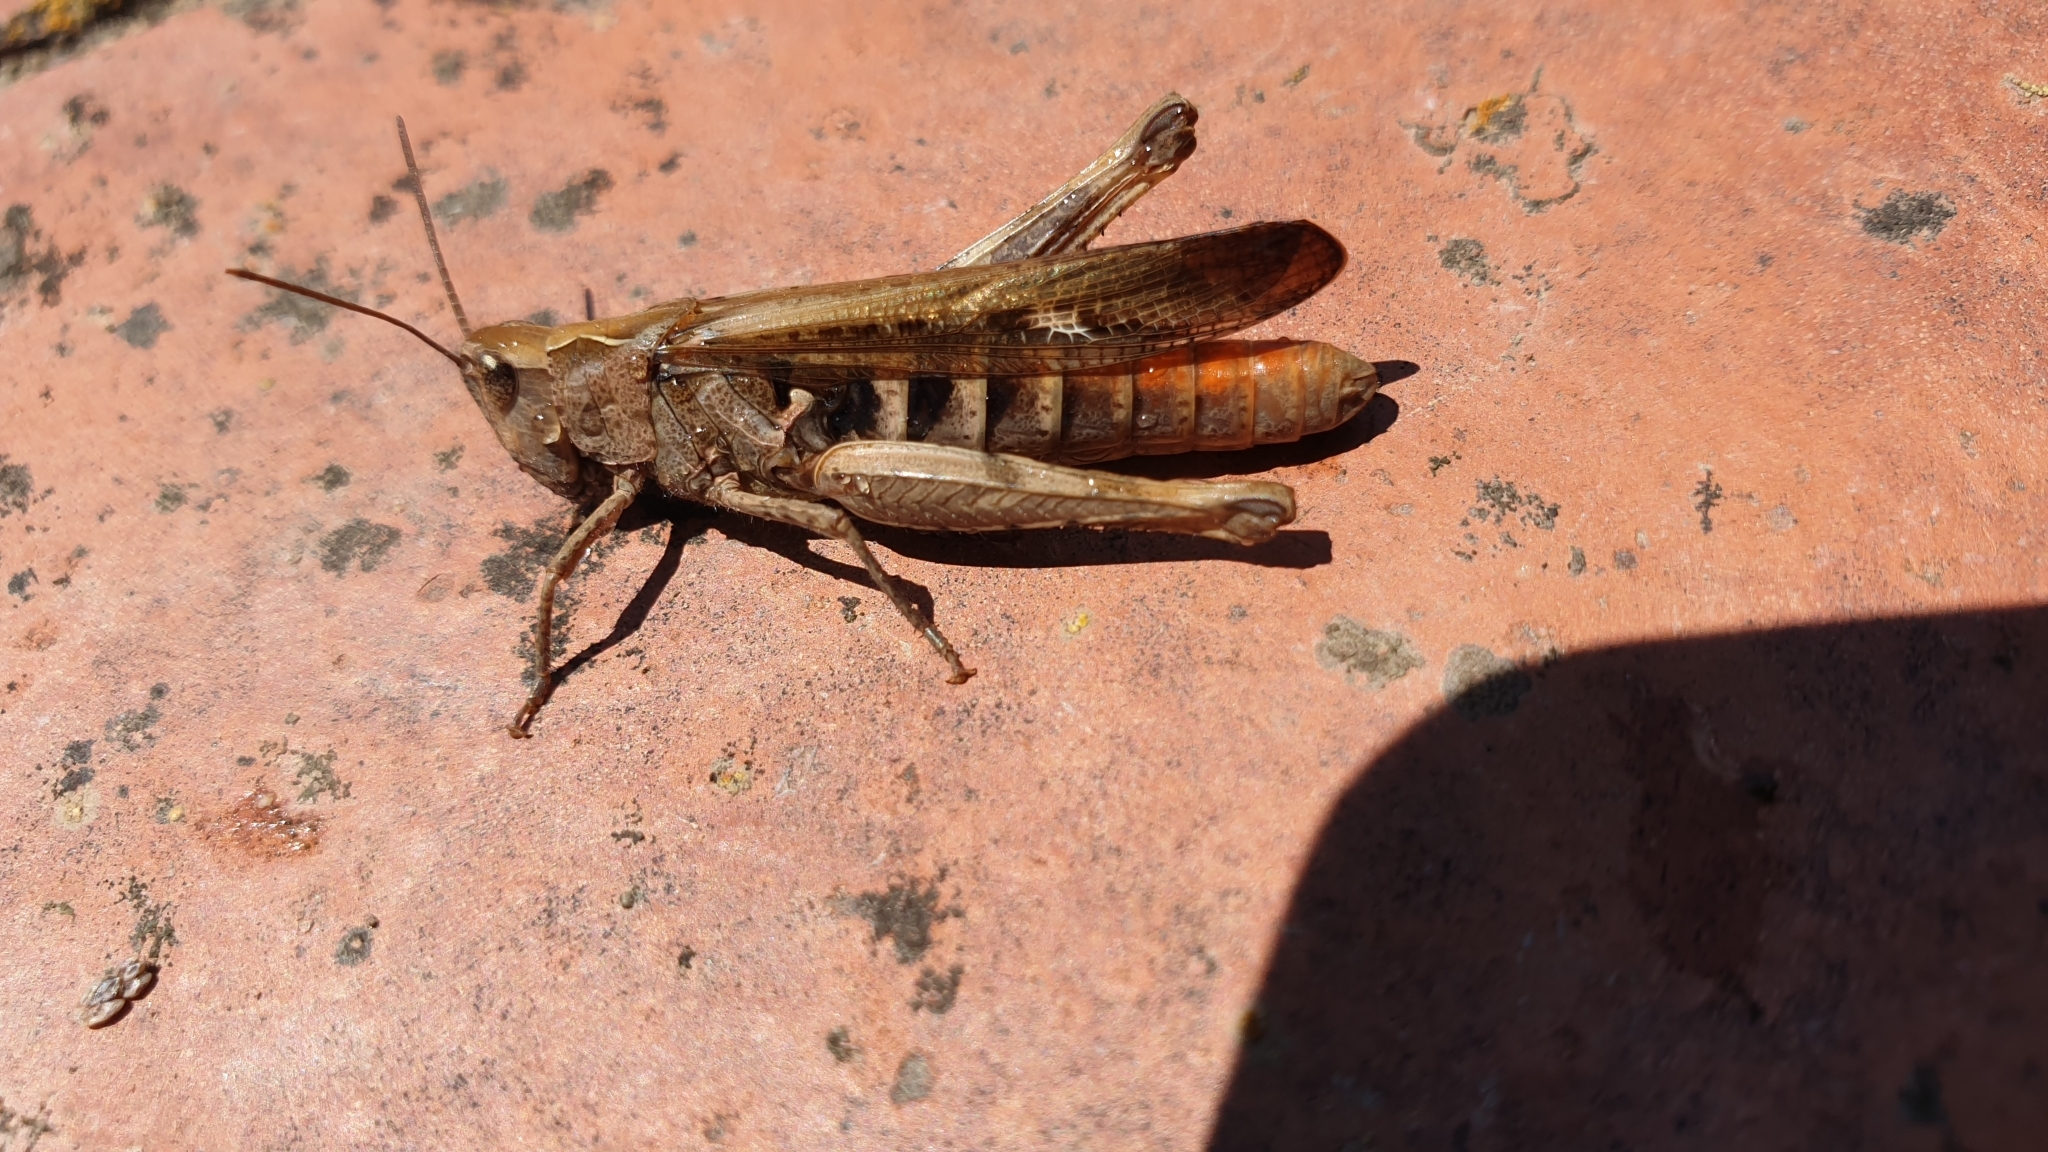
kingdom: Animalia
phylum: Arthropoda
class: Insecta
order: Orthoptera
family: Acrididae
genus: Chorthippus
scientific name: Chorthippus brunneus
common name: Field grasshopper
